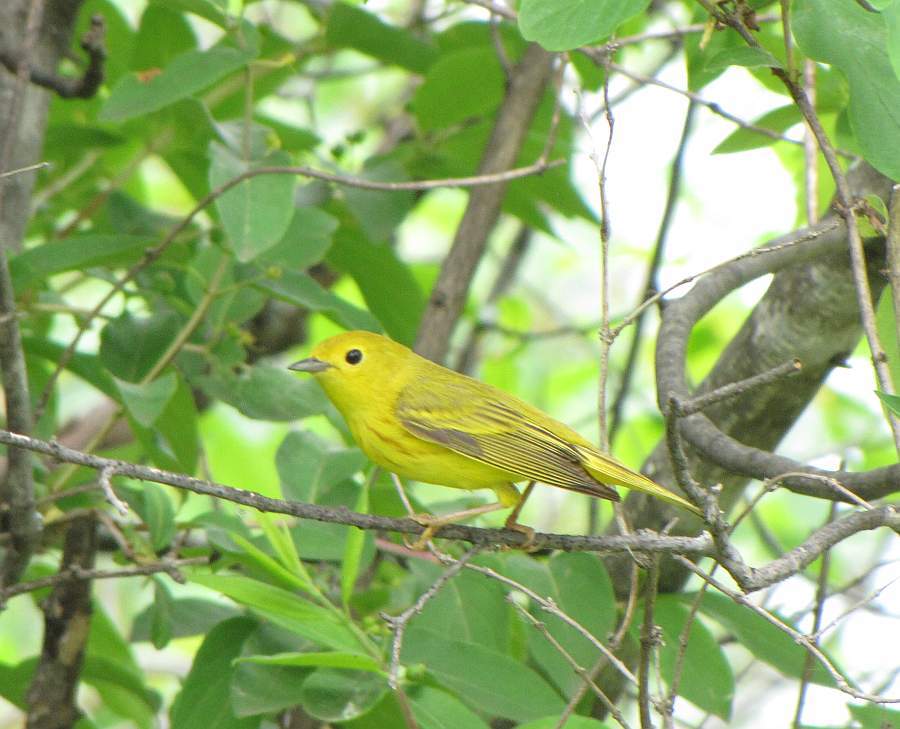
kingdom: Animalia
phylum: Chordata
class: Aves
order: Passeriformes
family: Parulidae
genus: Setophaga
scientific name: Setophaga petechia
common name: Yellow warbler
